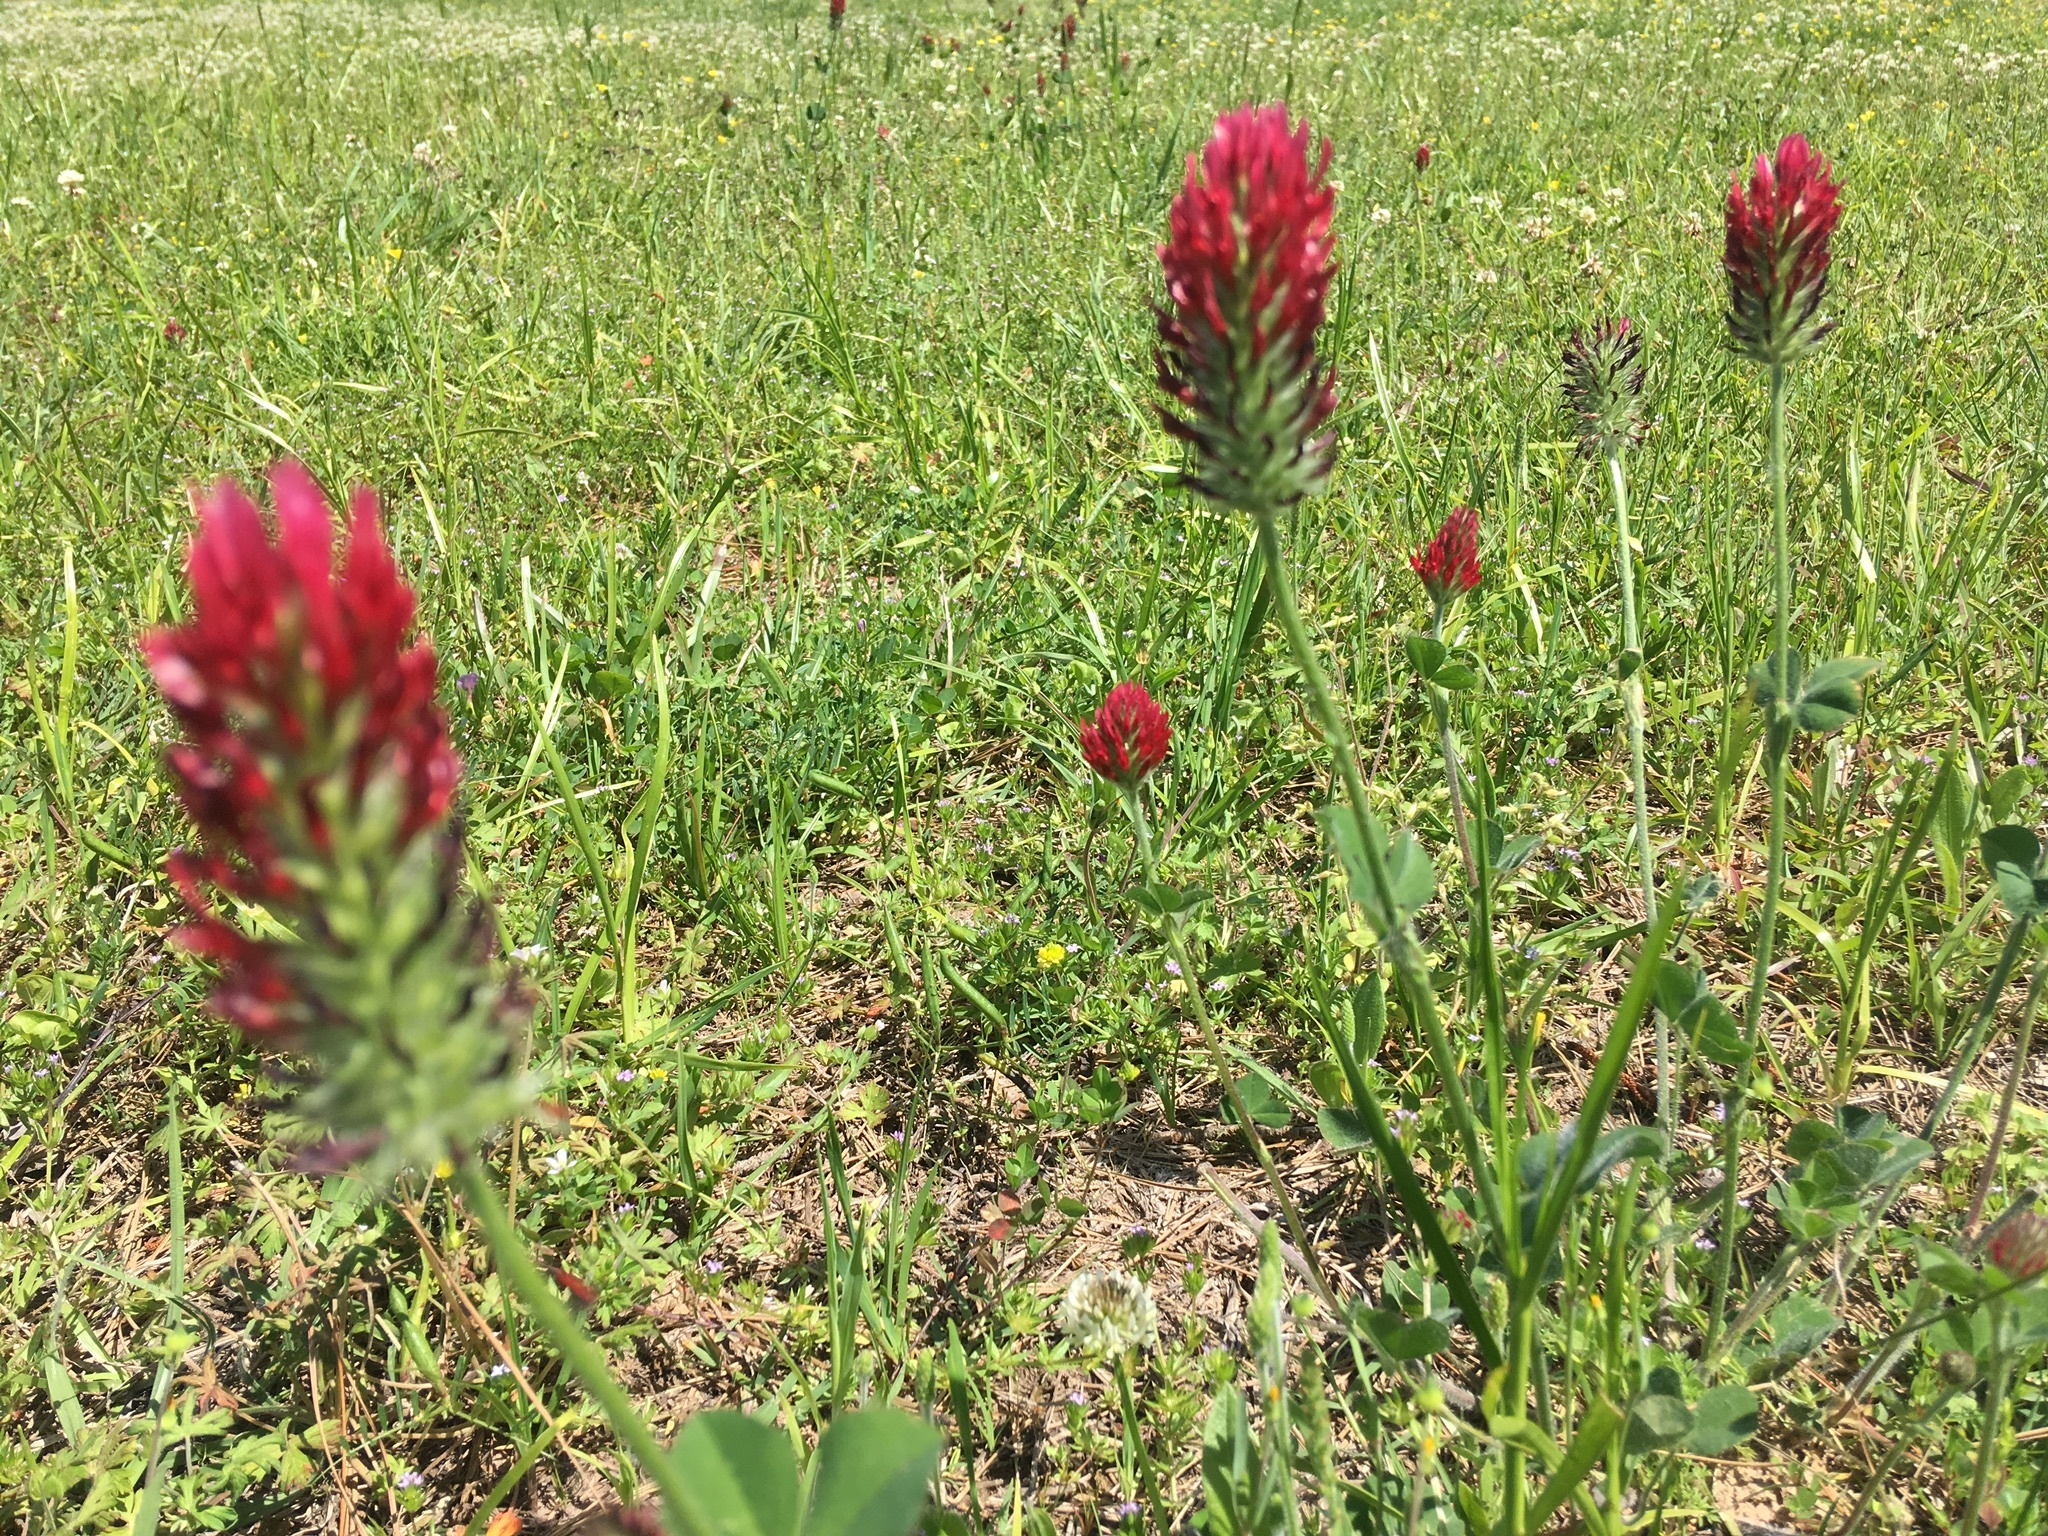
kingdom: Plantae
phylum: Tracheophyta
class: Magnoliopsida
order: Fabales
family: Fabaceae
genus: Trifolium
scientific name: Trifolium incarnatum
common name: Crimson clover
